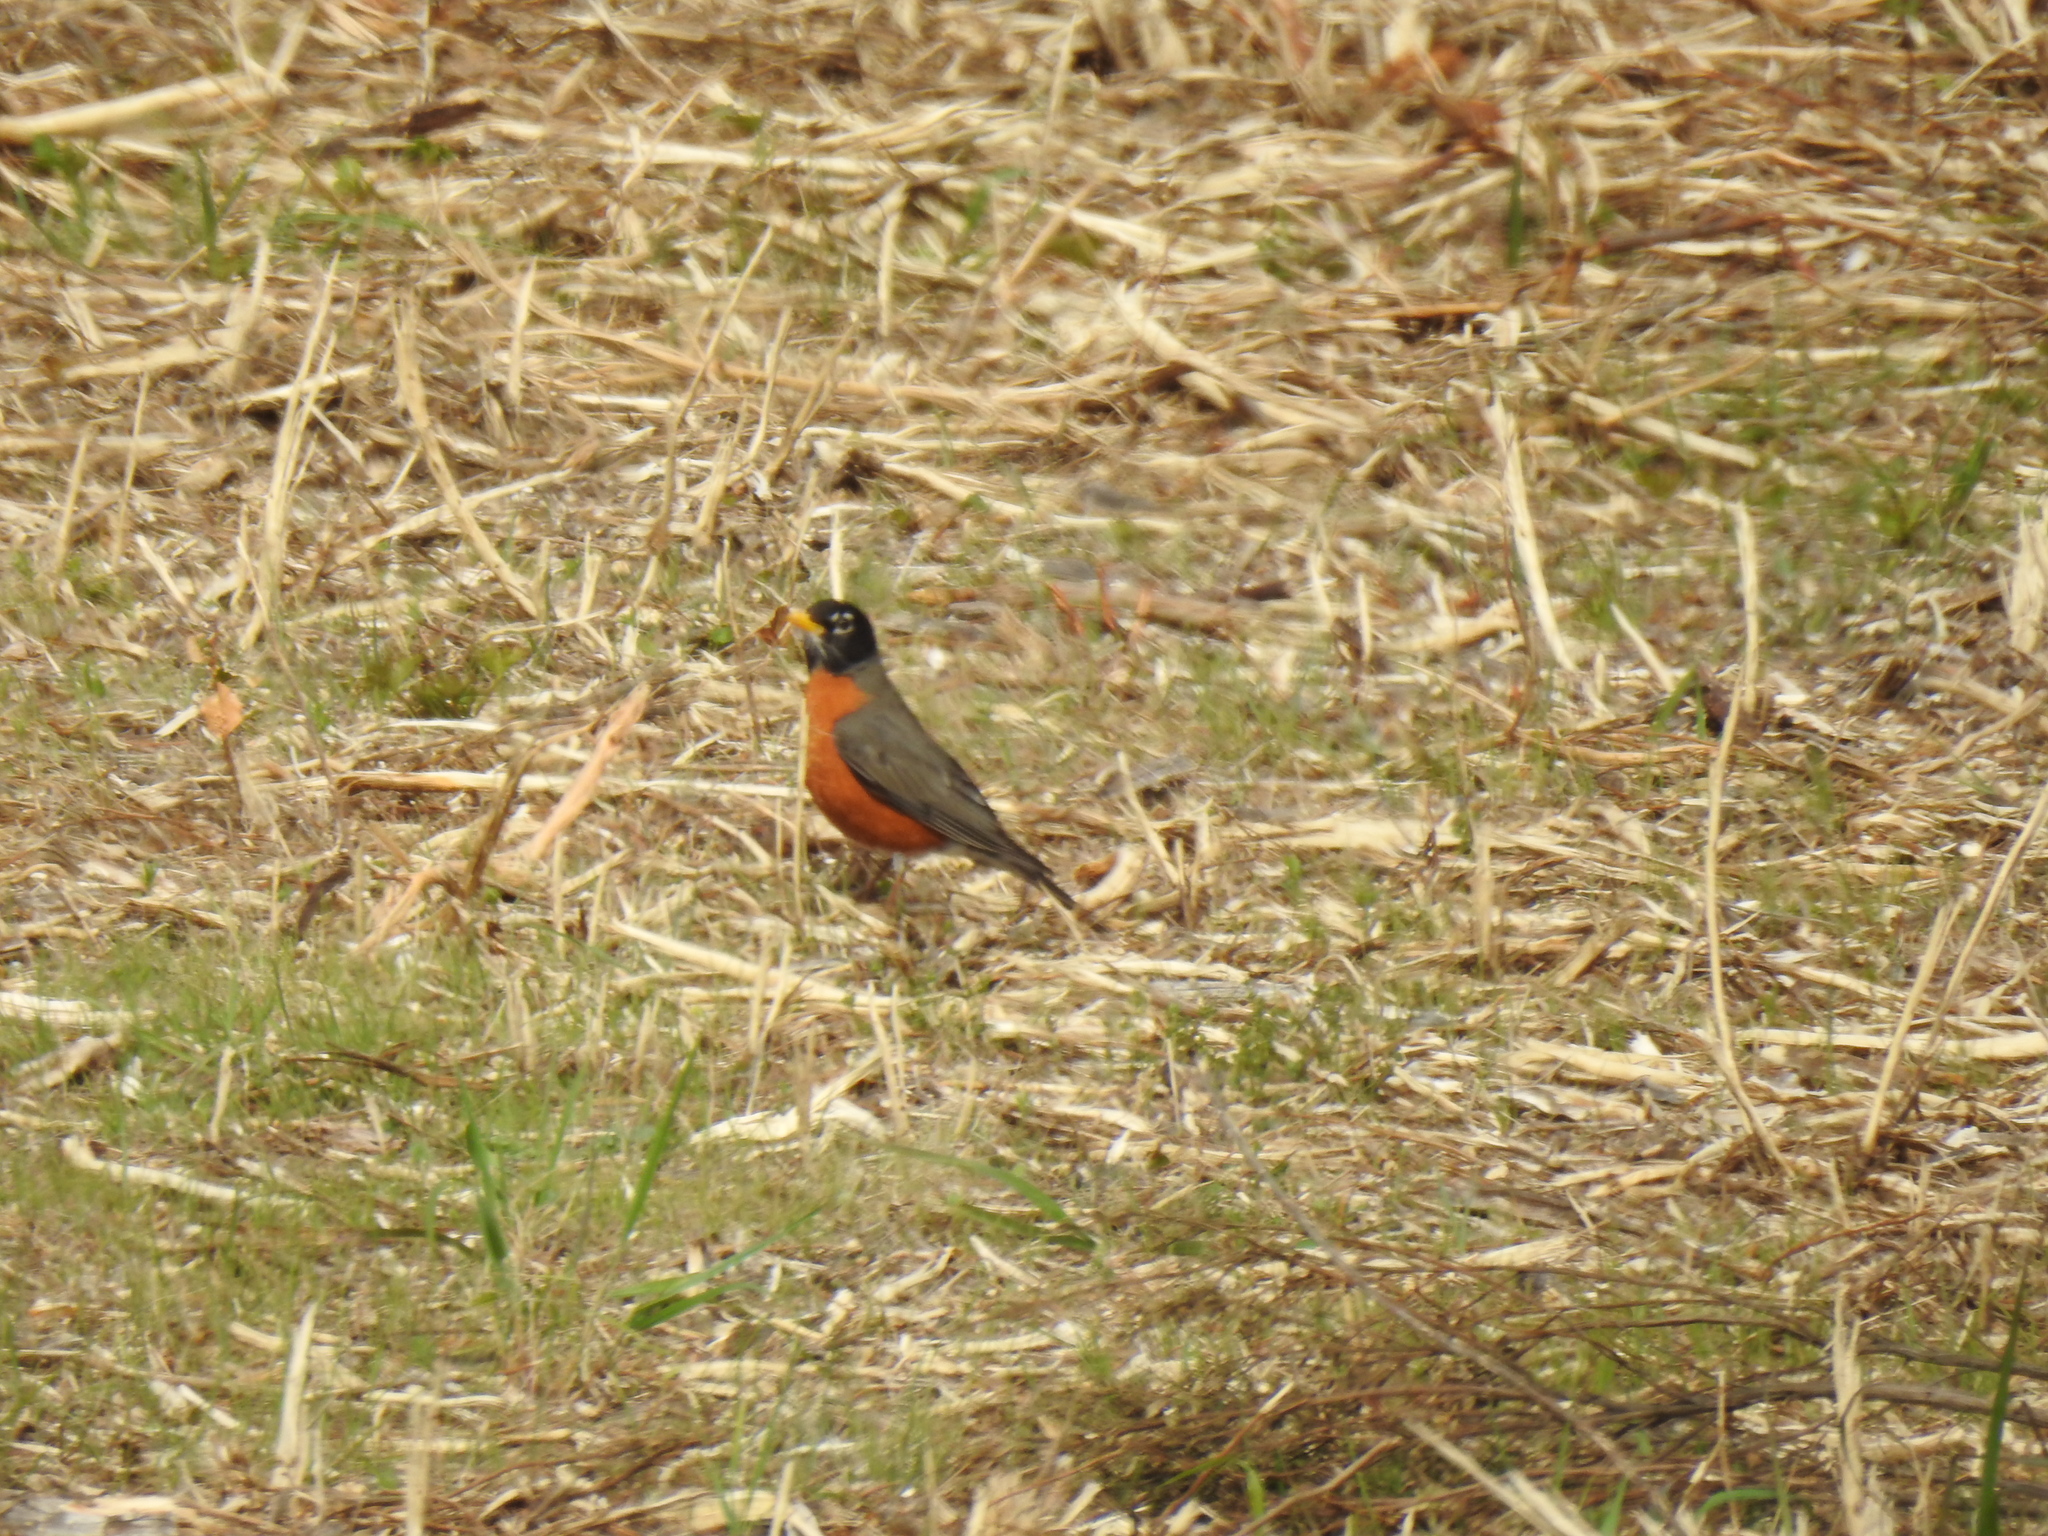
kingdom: Animalia
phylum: Chordata
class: Aves
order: Passeriformes
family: Turdidae
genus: Turdus
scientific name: Turdus migratorius
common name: American robin
